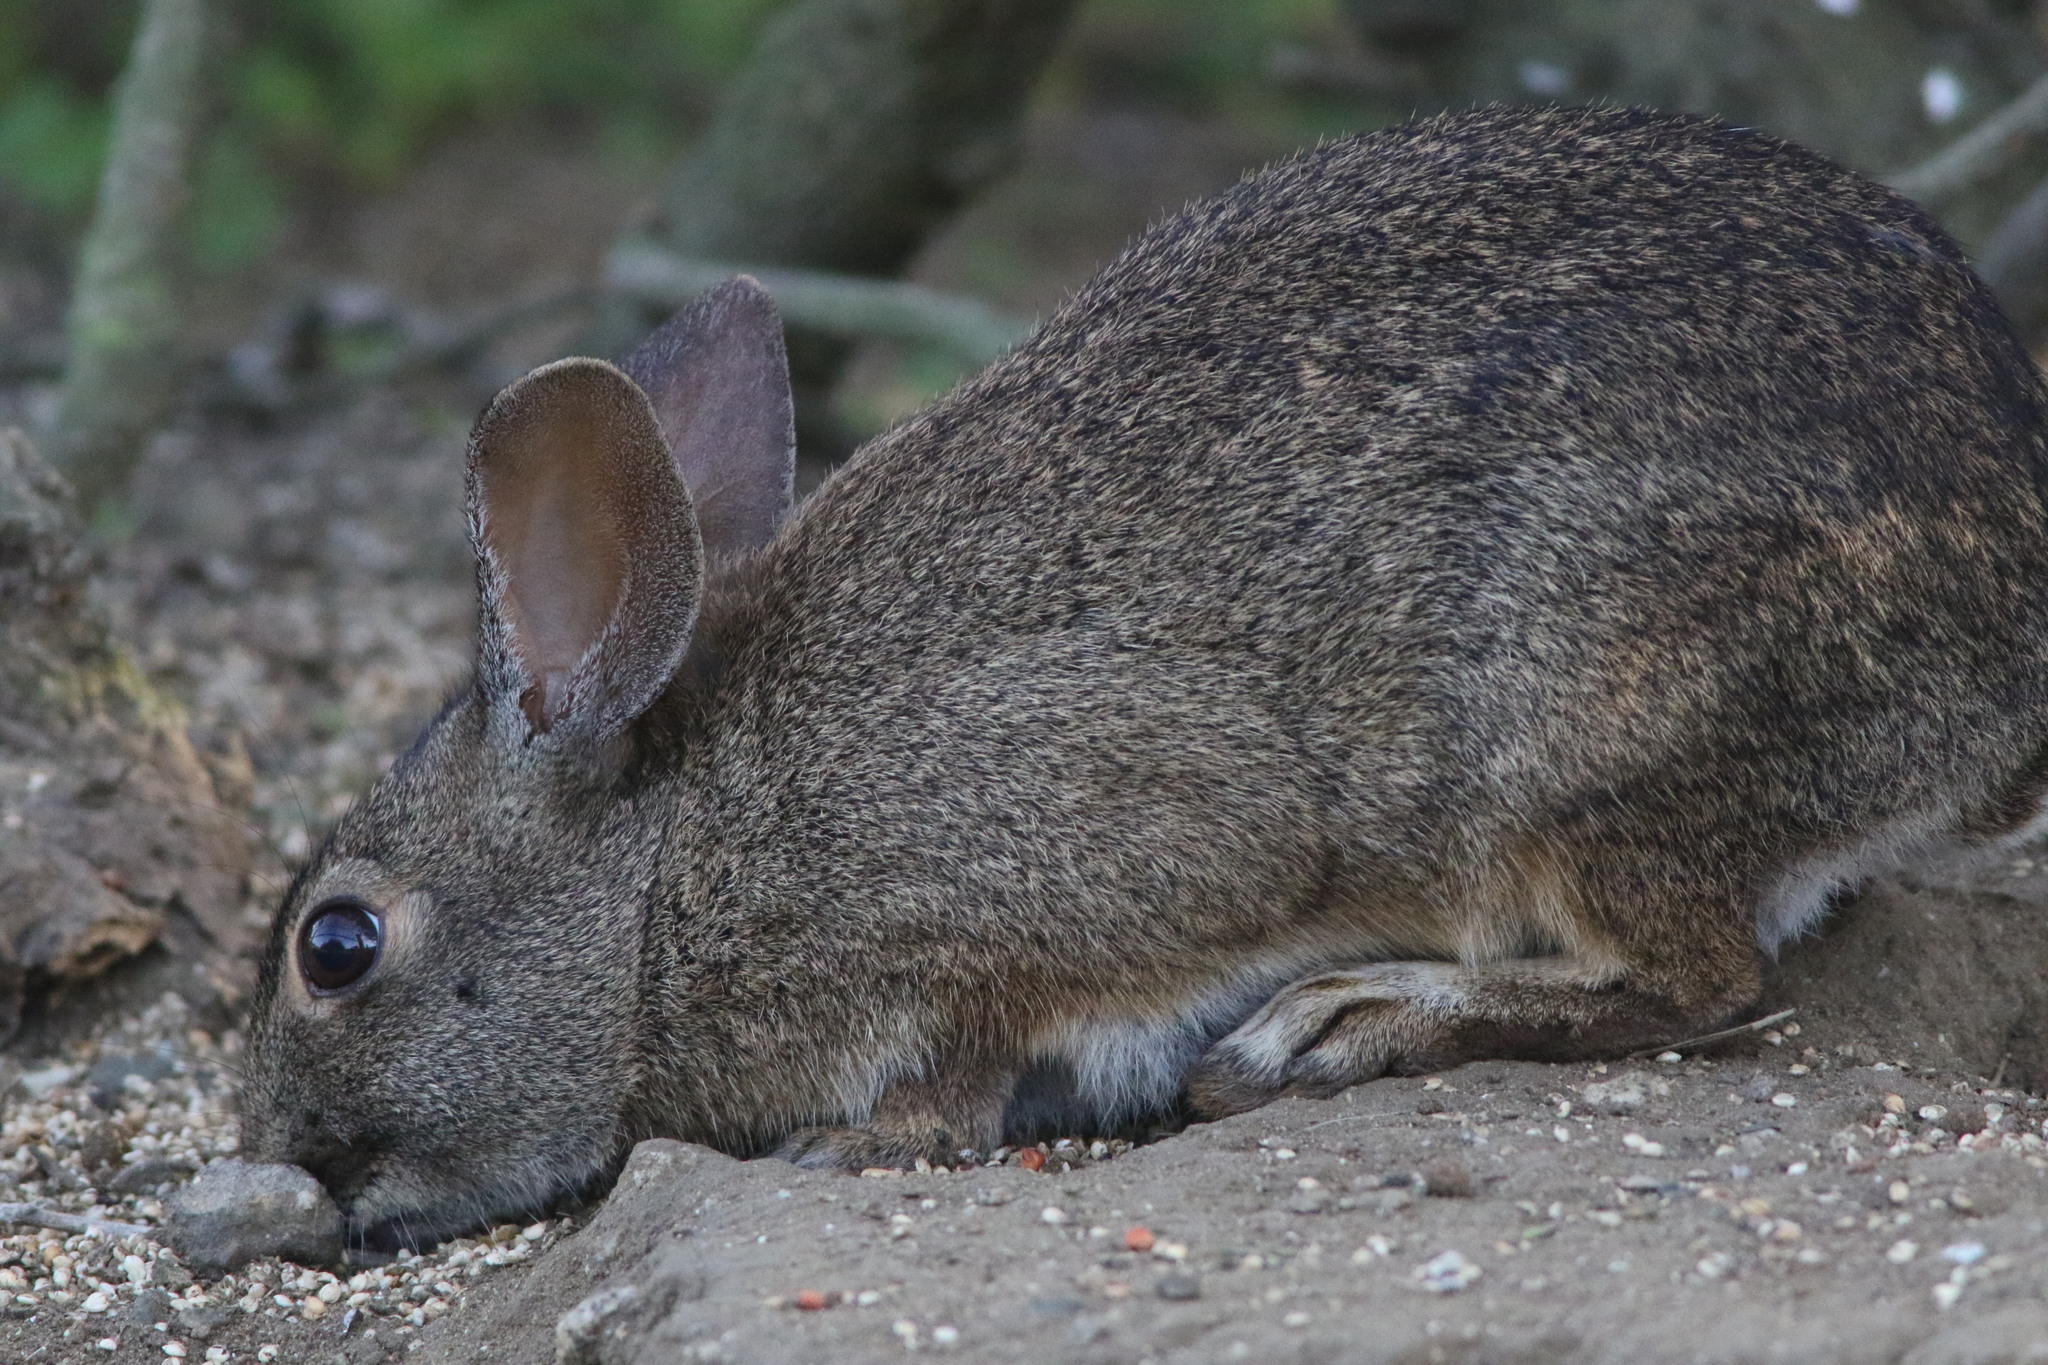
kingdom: Animalia
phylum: Chordata
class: Mammalia
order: Lagomorpha
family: Leporidae
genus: Sylvilagus
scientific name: Sylvilagus bachmani
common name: Brush rabbit
